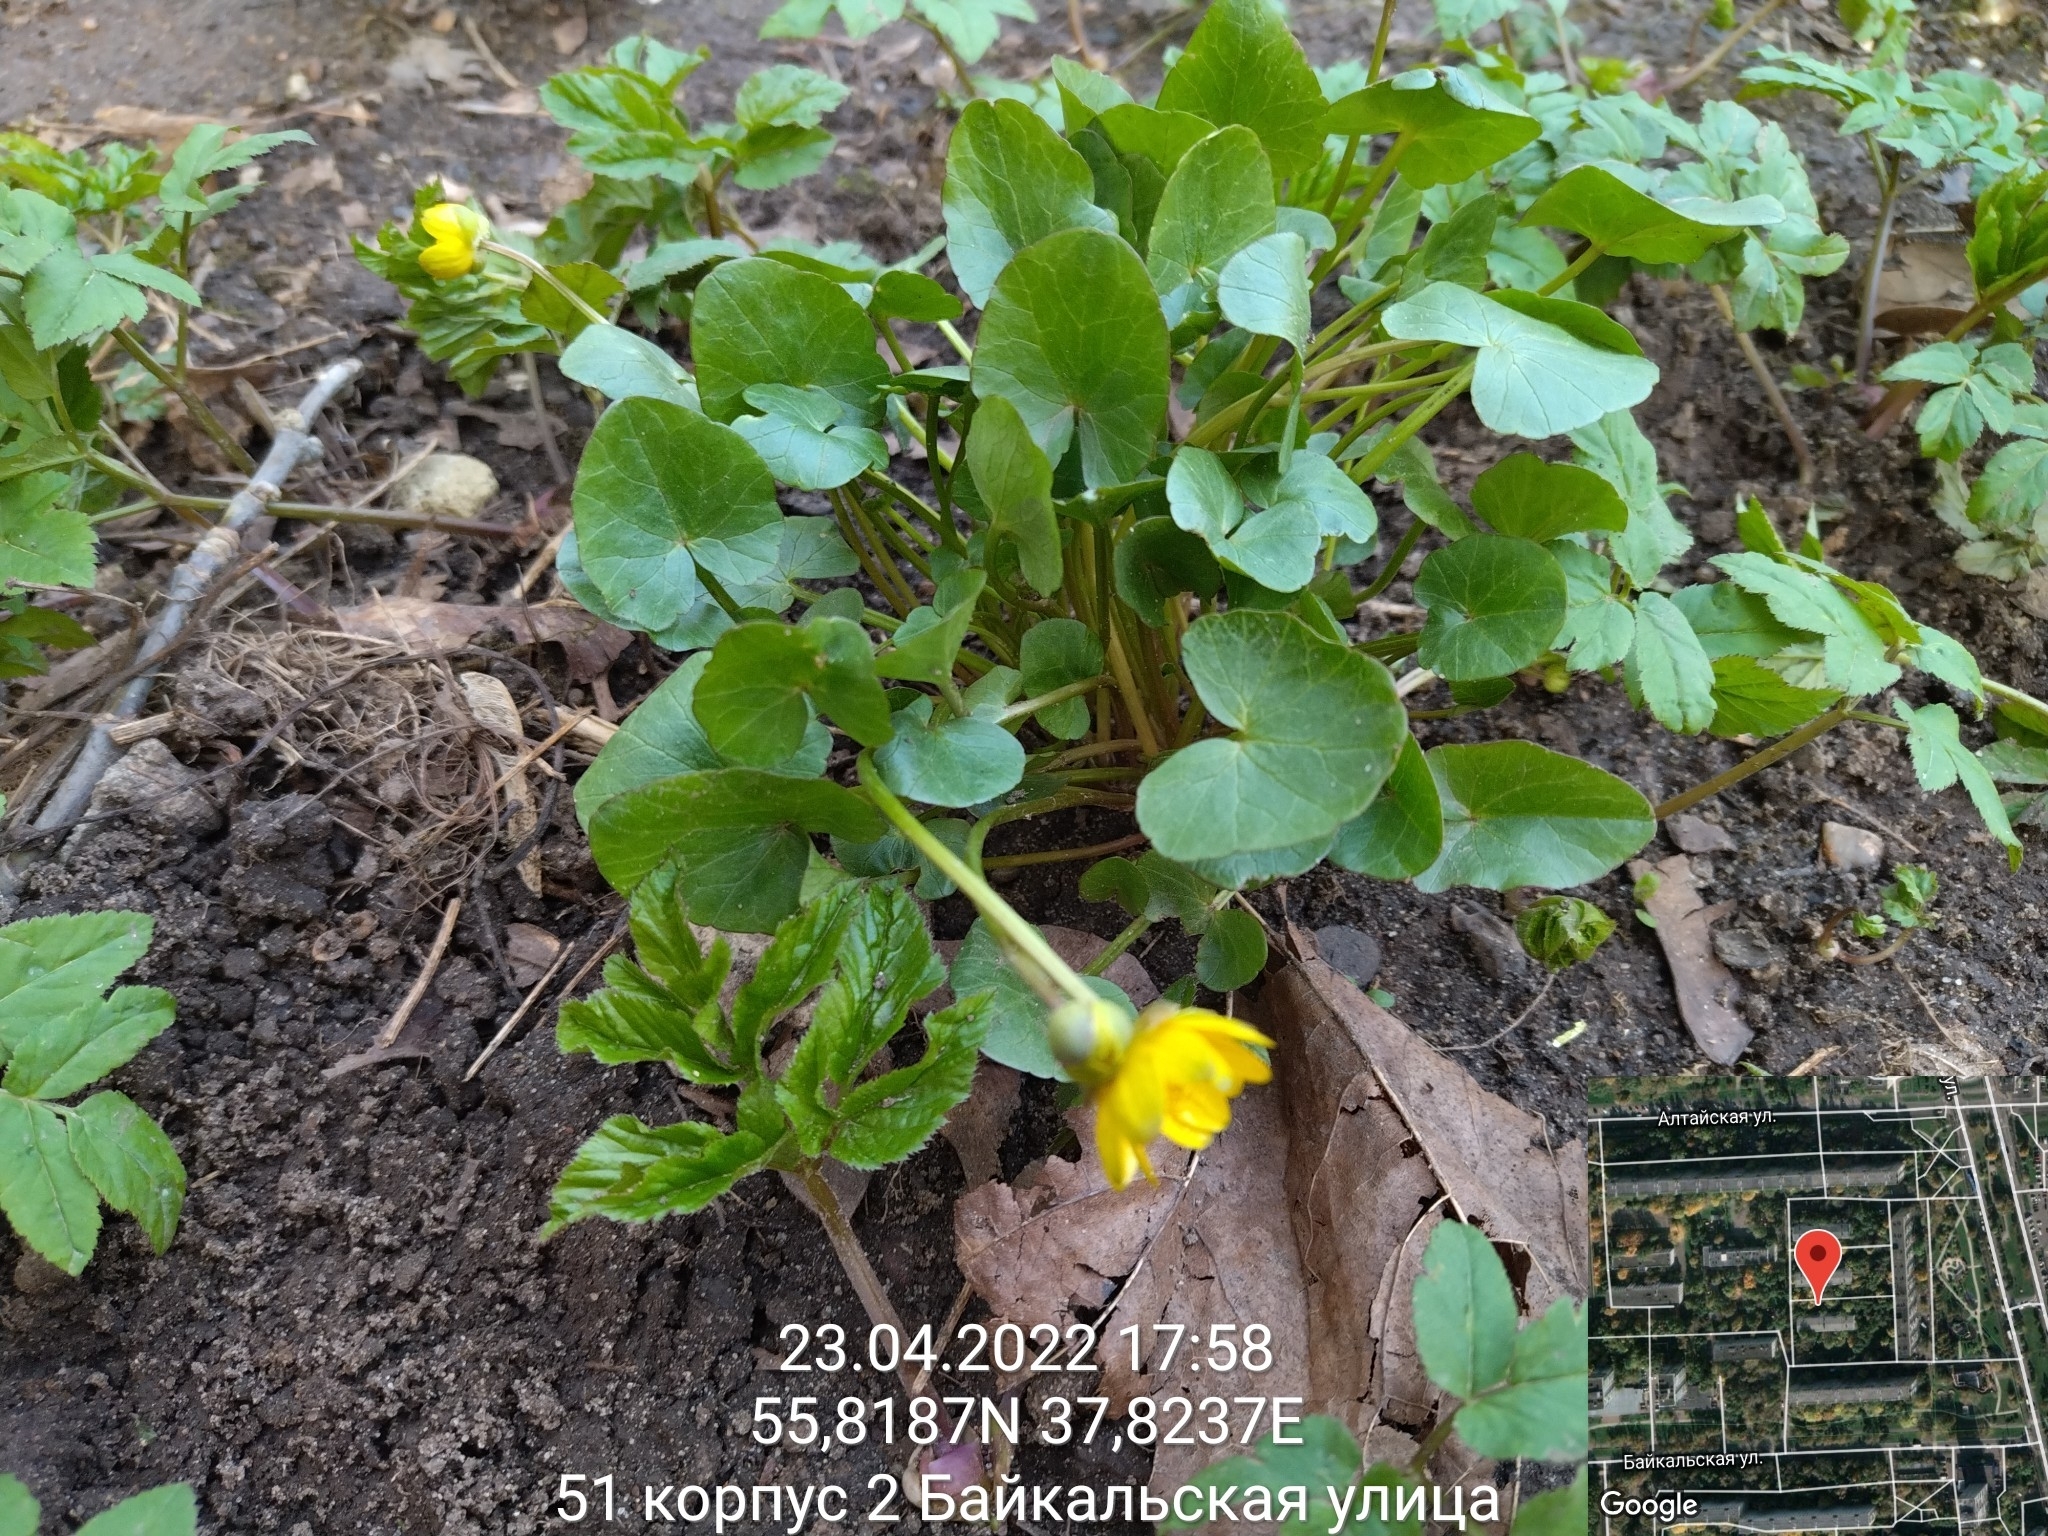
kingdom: Plantae
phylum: Tracheophyta
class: Magnoliopsida
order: Ranunculales
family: Ranunculaceae
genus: Ficaria
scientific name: Ficaria verna
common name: Lesser celandine
